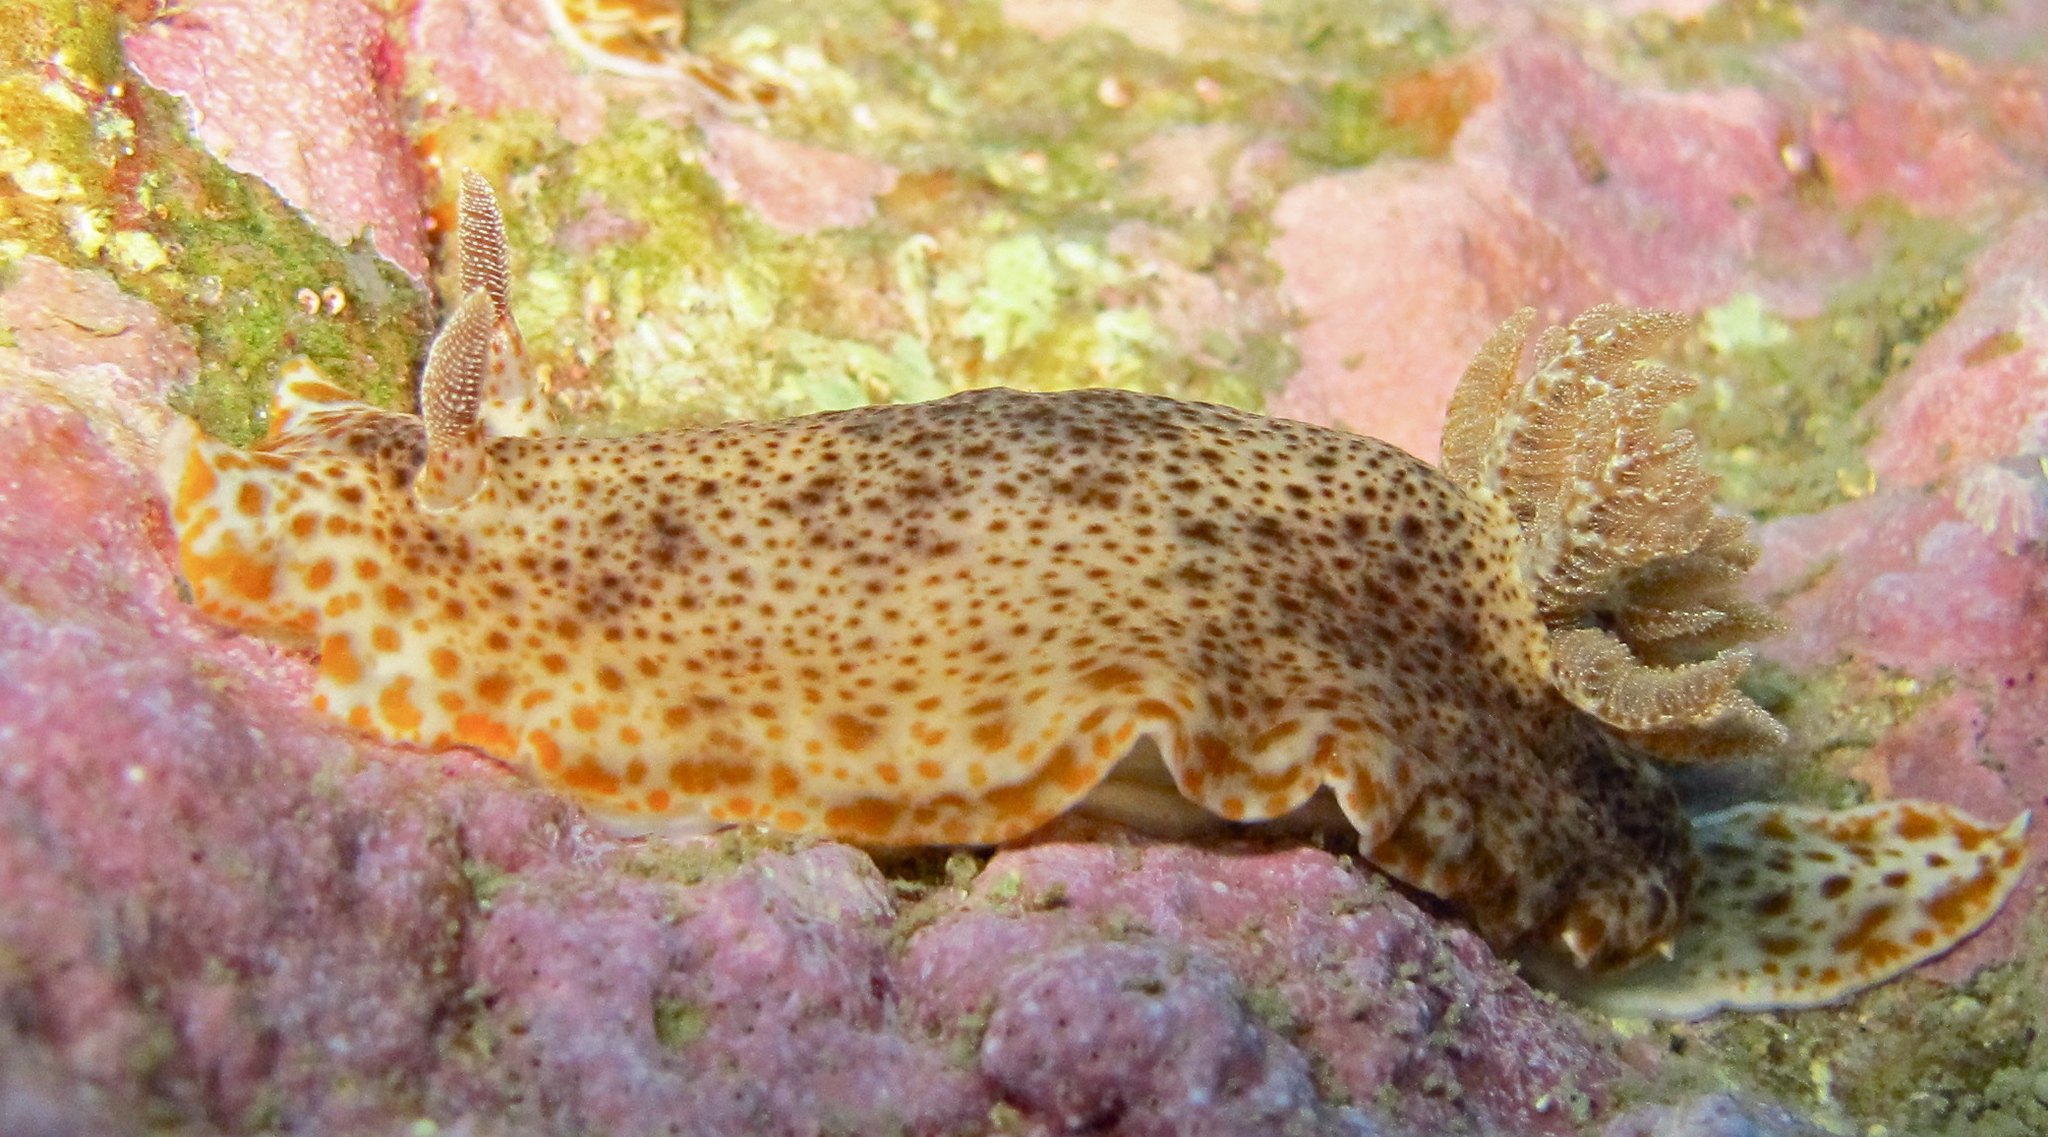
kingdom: Animalia
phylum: Mollusca
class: Gastropoda
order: Nudibranchia
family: Chromodorididae
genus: Chromodoris
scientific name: Chromodoris mandapamensis
